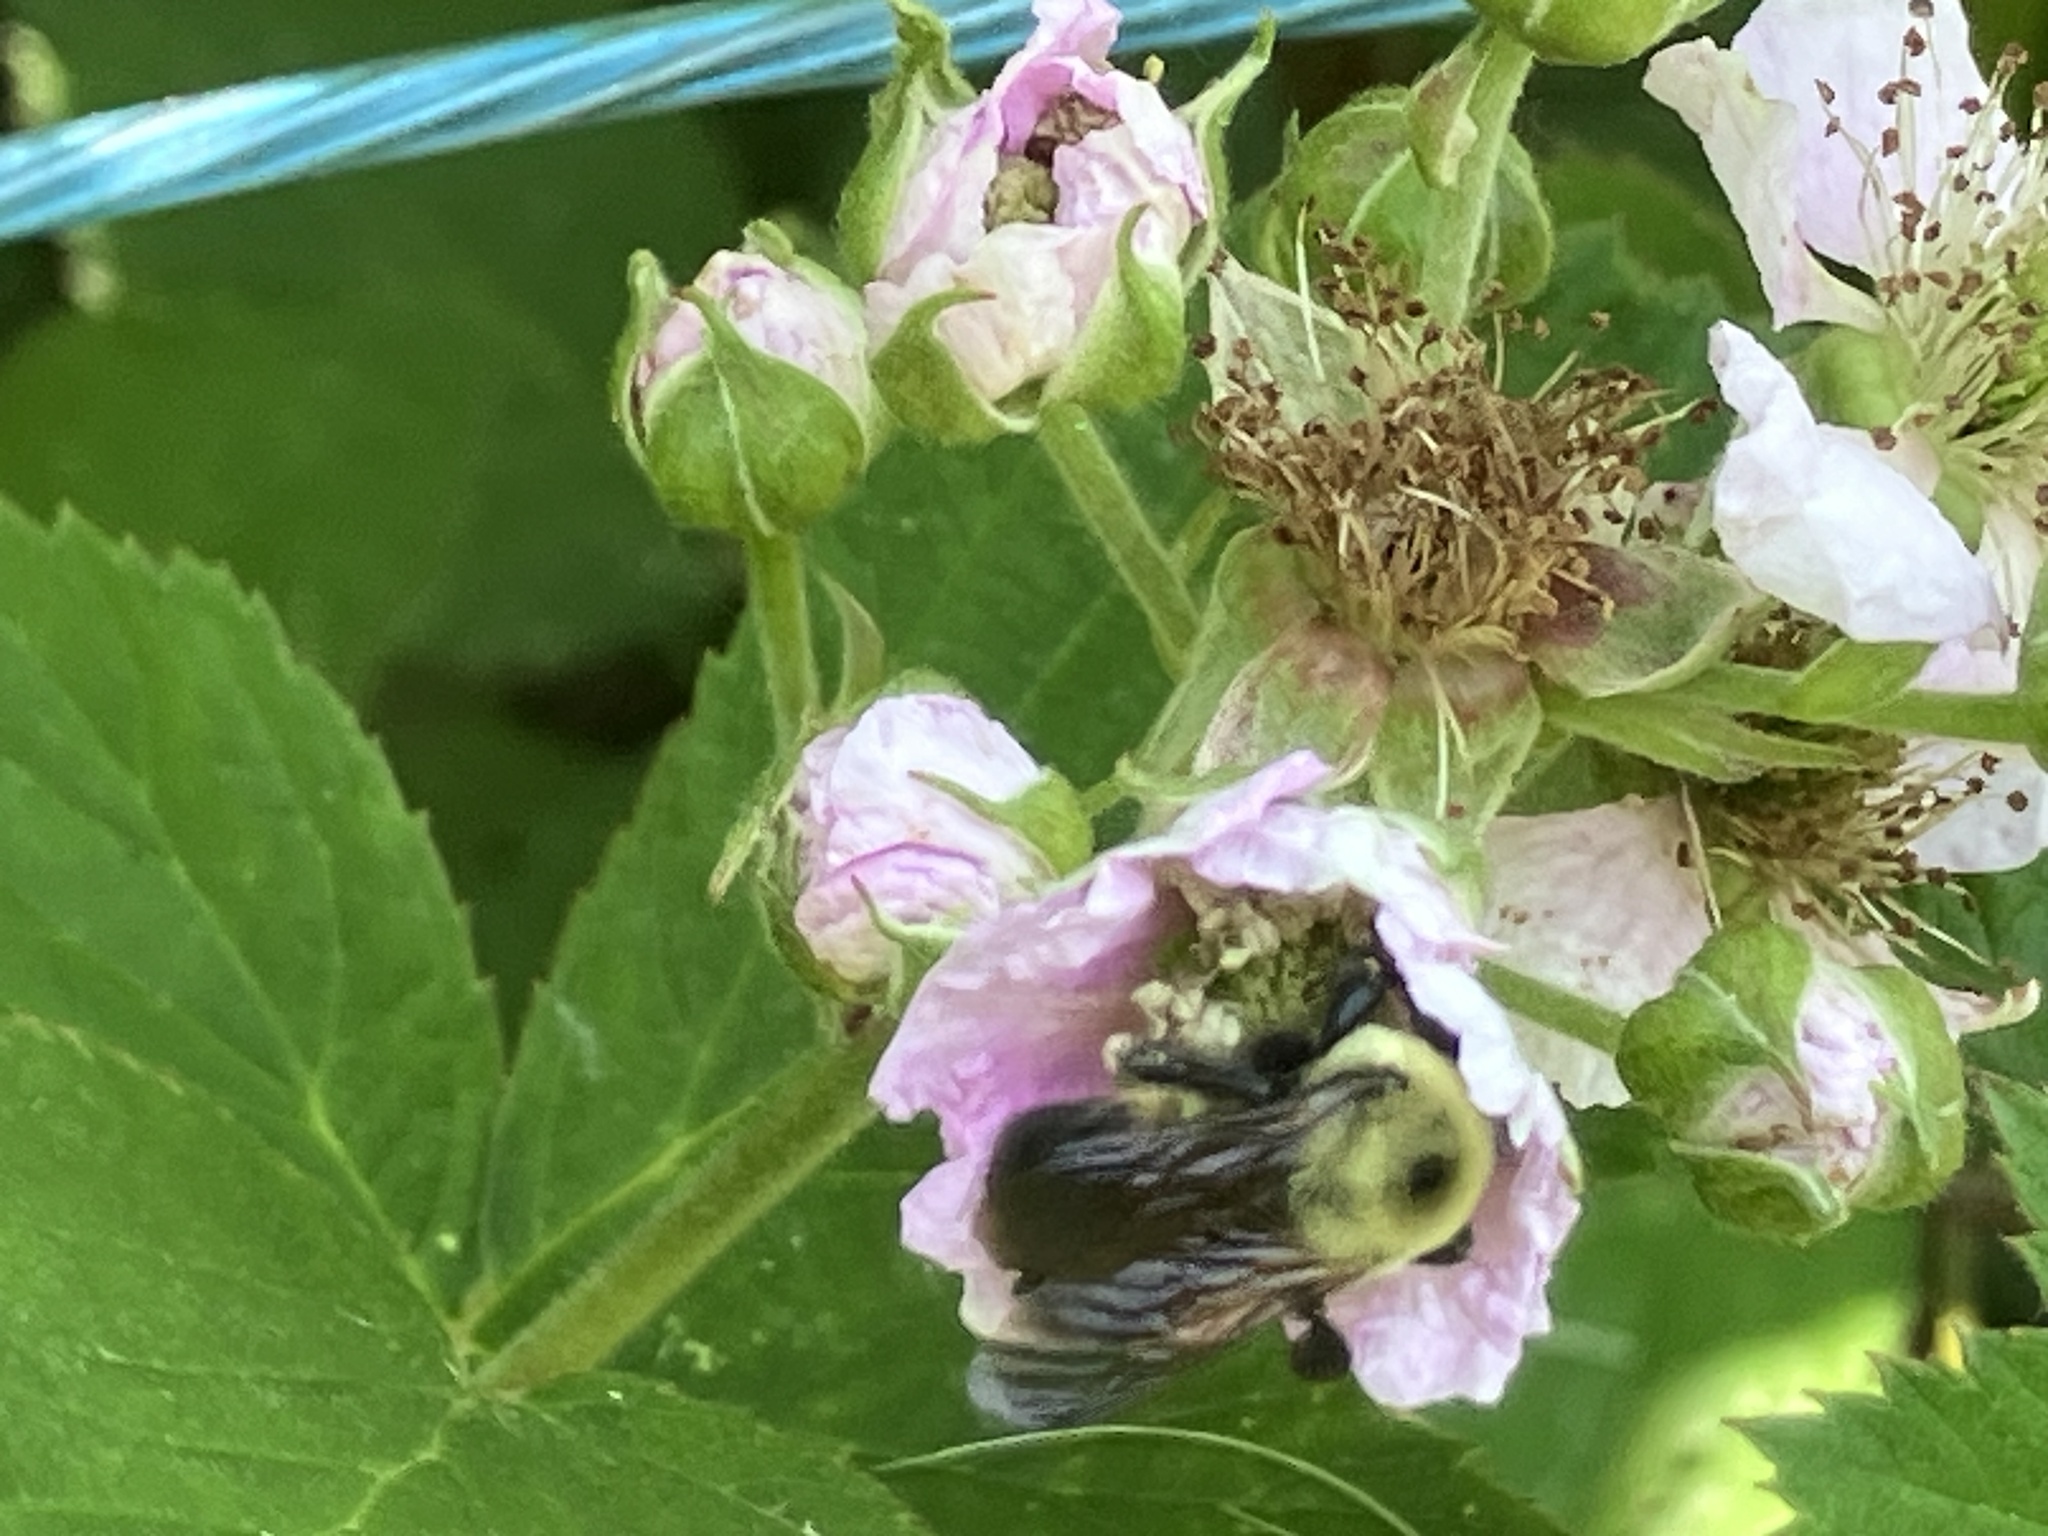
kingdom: Animalia
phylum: Arthropoda
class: Insecta
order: Hymenoptera
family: Apidae
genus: Bombus
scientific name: Bombus griseocollis
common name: Brown-belted bumble bee
